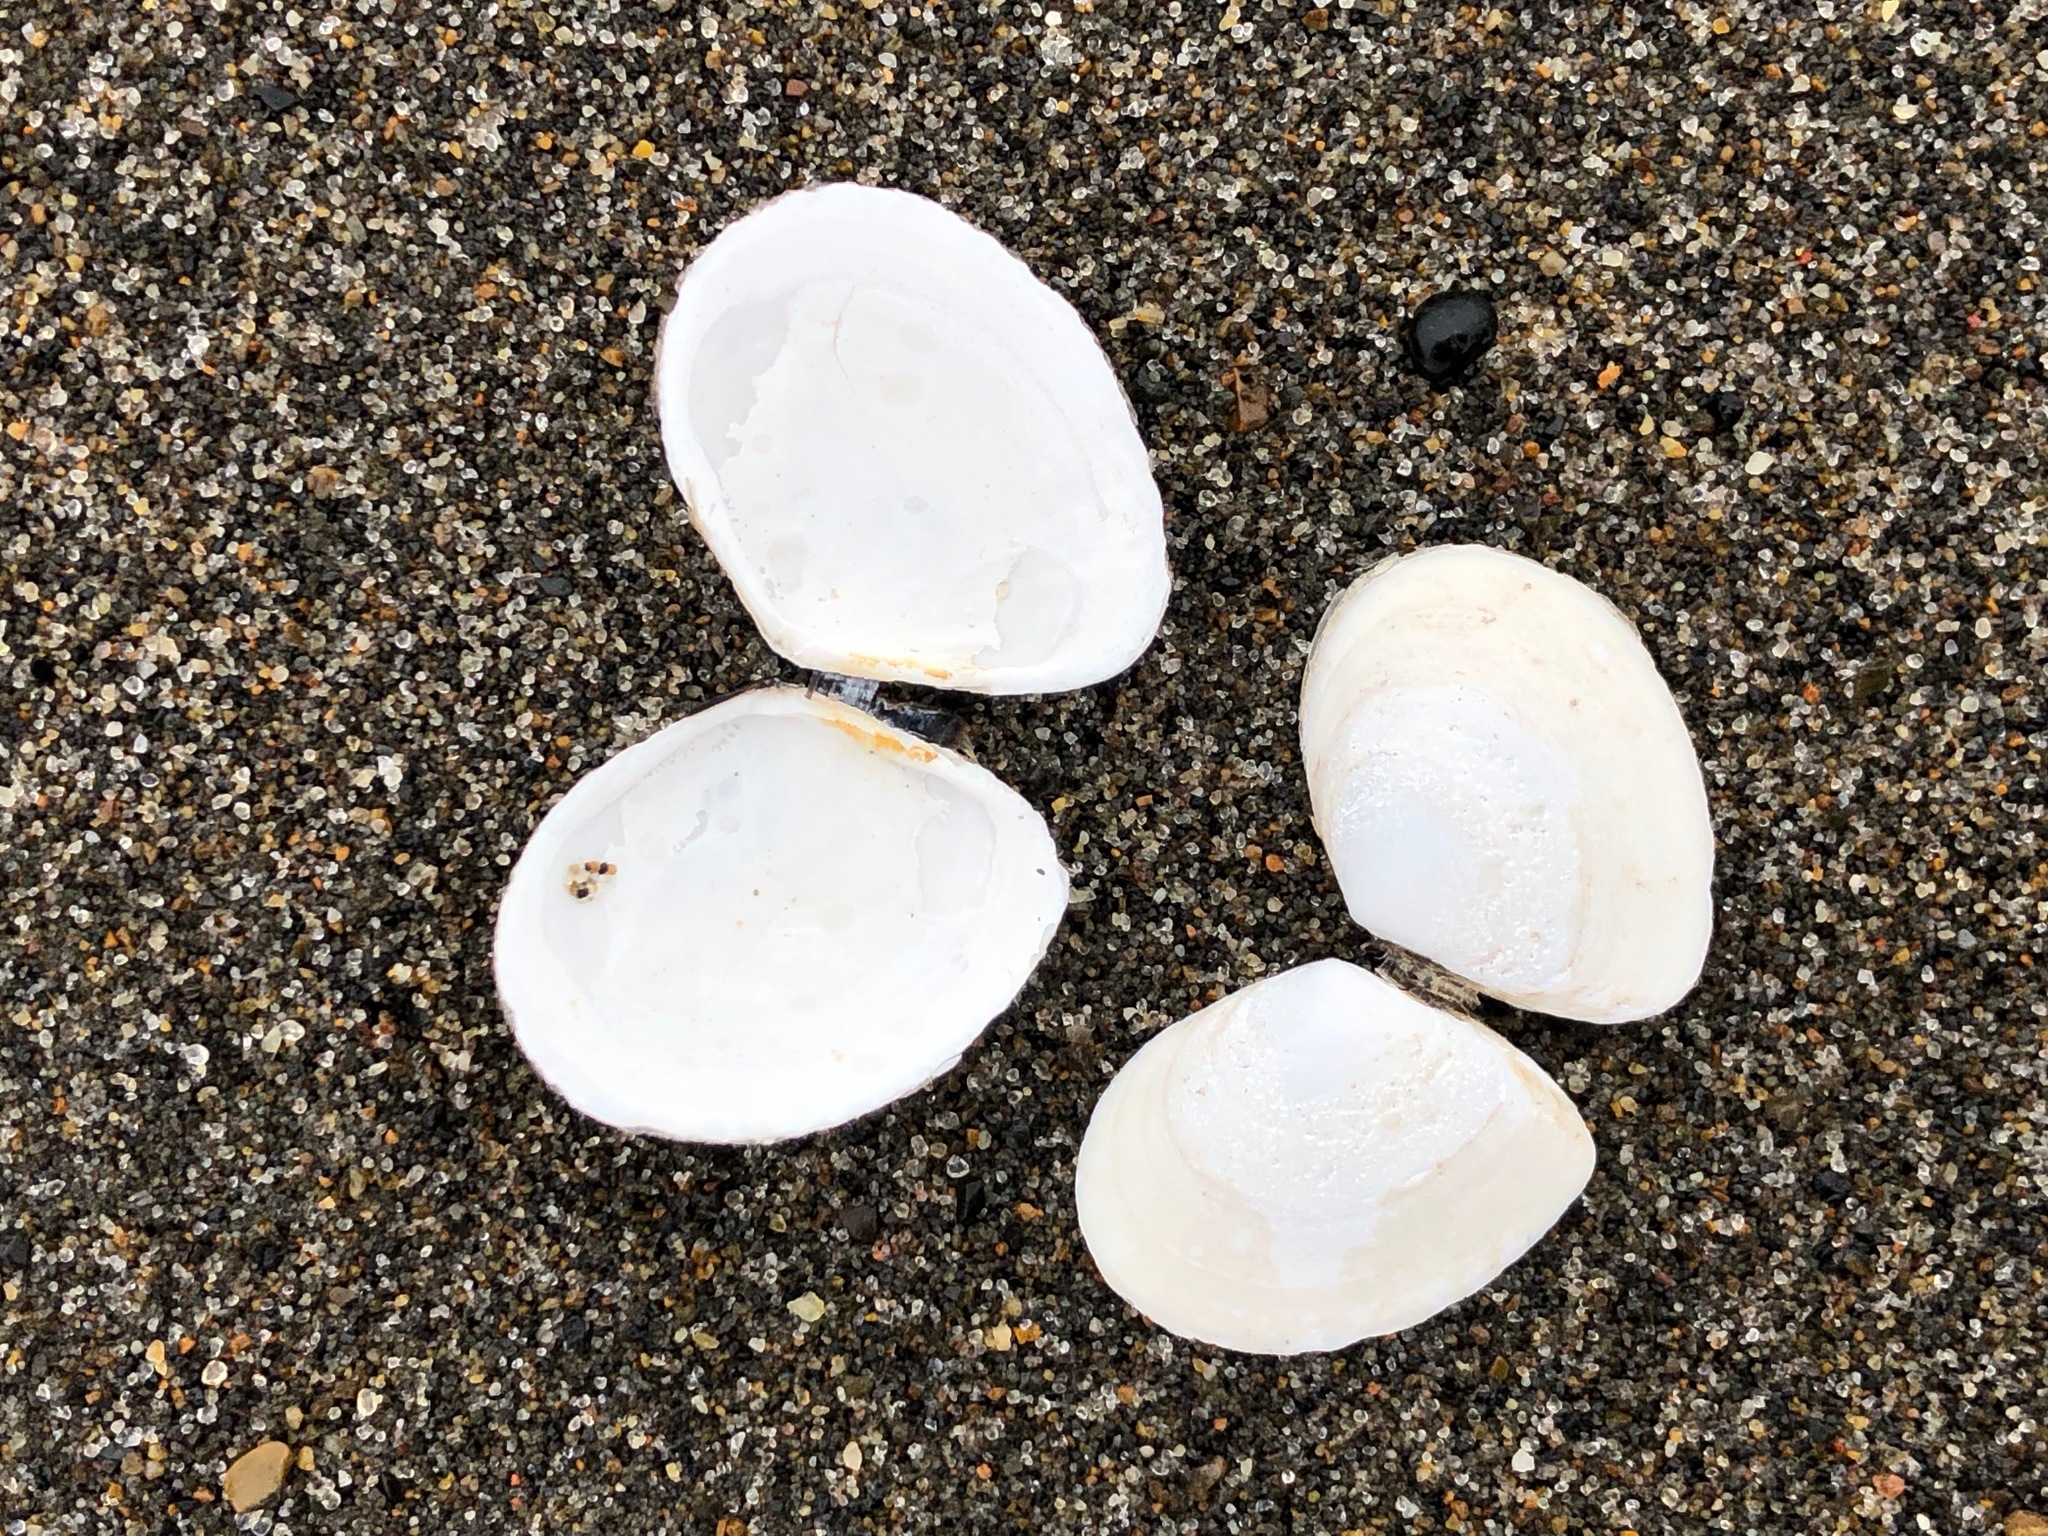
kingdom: Animalia
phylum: Mollusca
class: Bivalvia
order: Cardiida
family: Tellinidae
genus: Macoma
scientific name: Macoma balthica
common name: Baltic tellin
